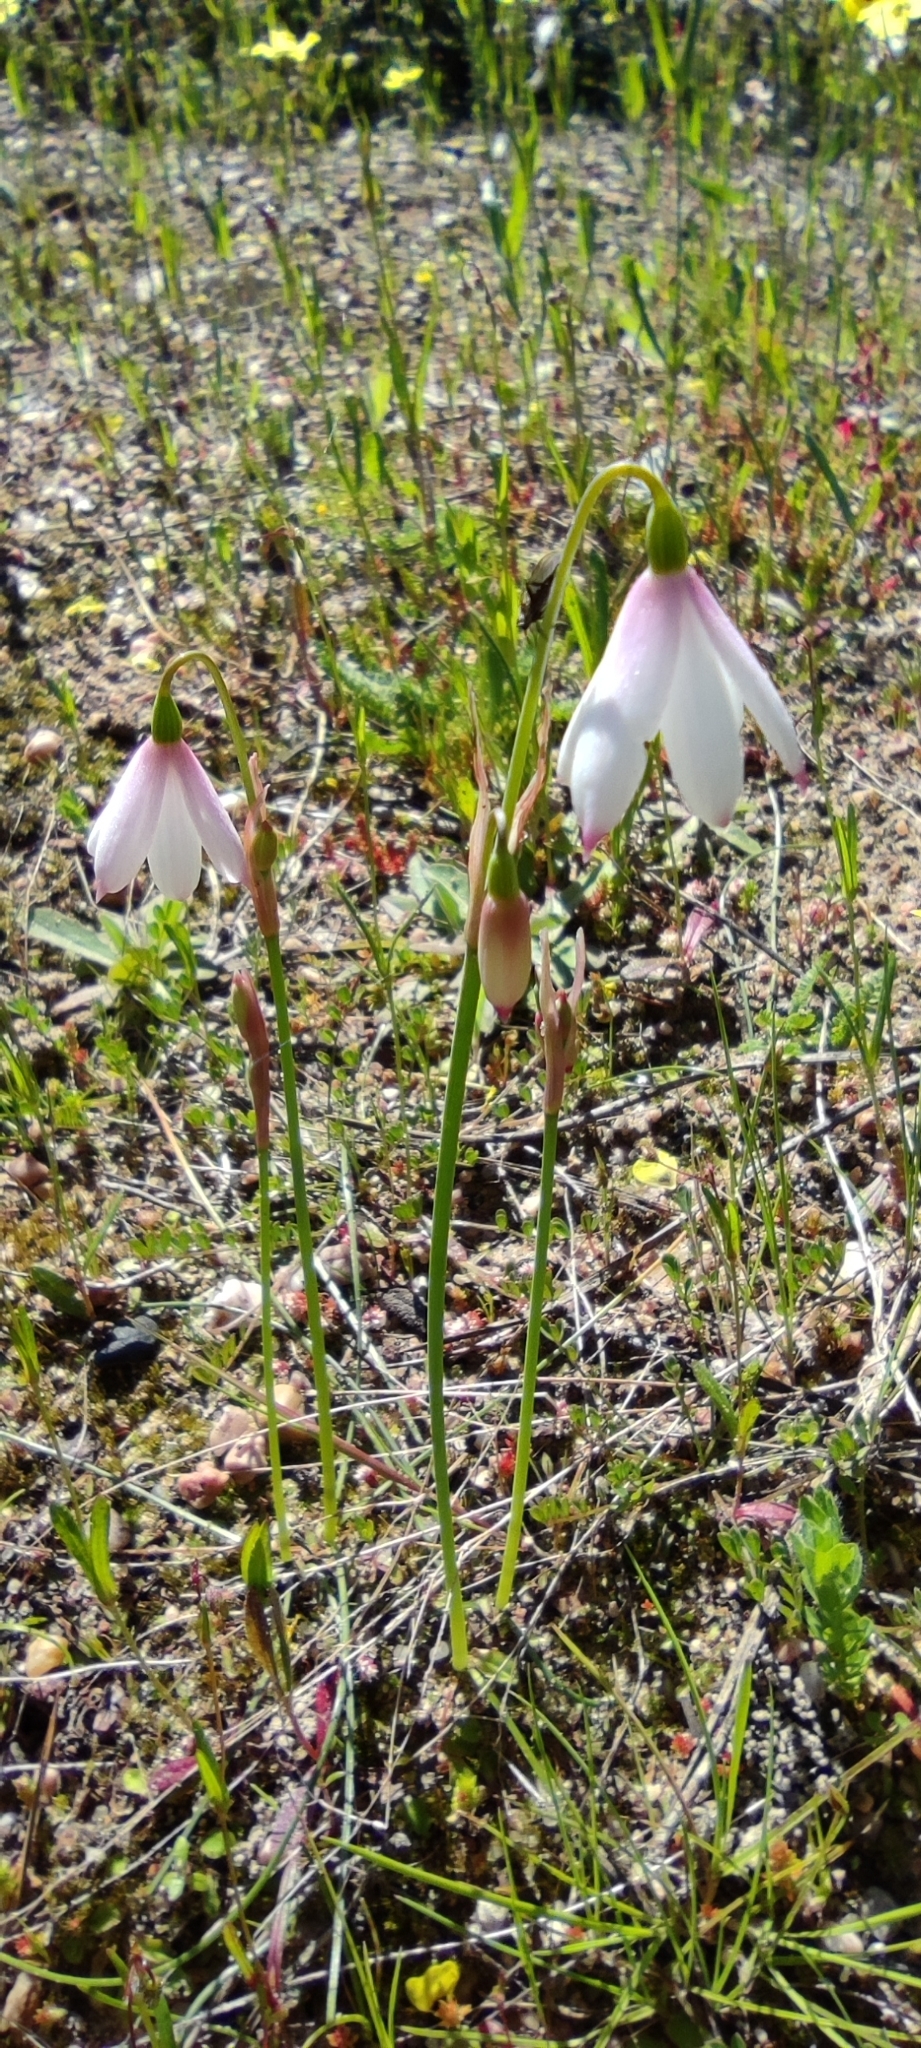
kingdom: Plantae
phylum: Tracheophyta
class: Liliopsida
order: Asparagales
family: Amaryllidaceae
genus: Acis
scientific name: Acis trichophylla
